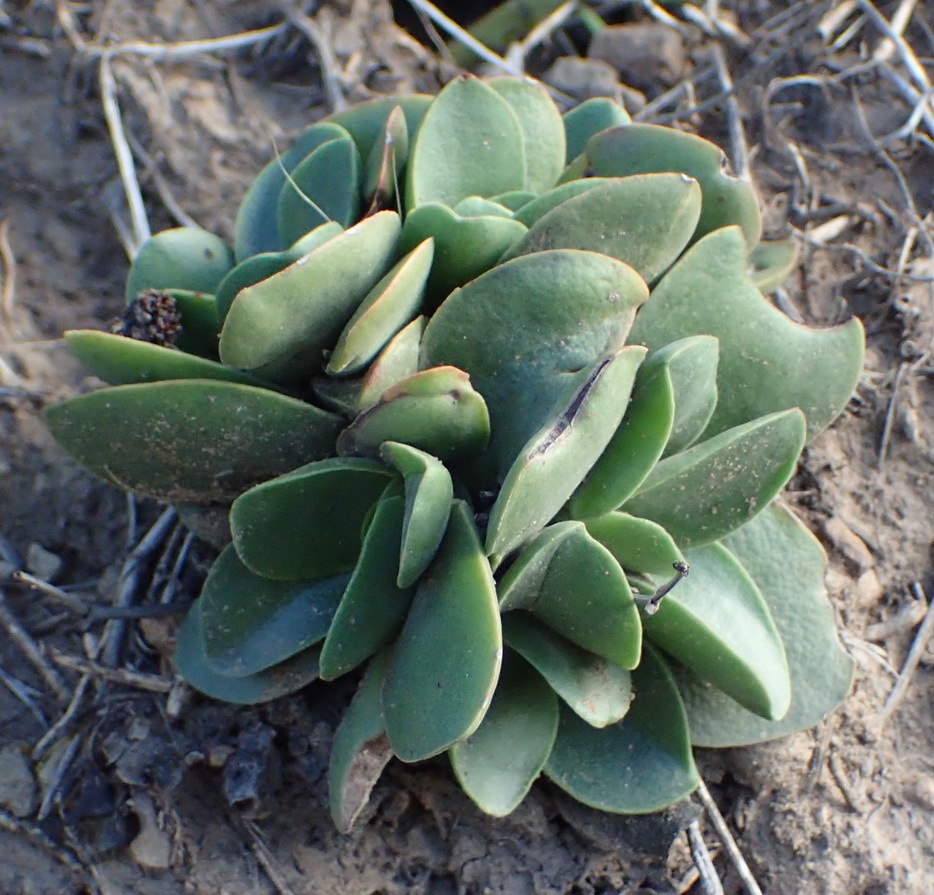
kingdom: Plantae
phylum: Tracheophyta
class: Magnoliopsida
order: Saxifragales
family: Crassulaceae
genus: Crassula
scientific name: Crassula pubescens
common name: Jersey pigmyweed
